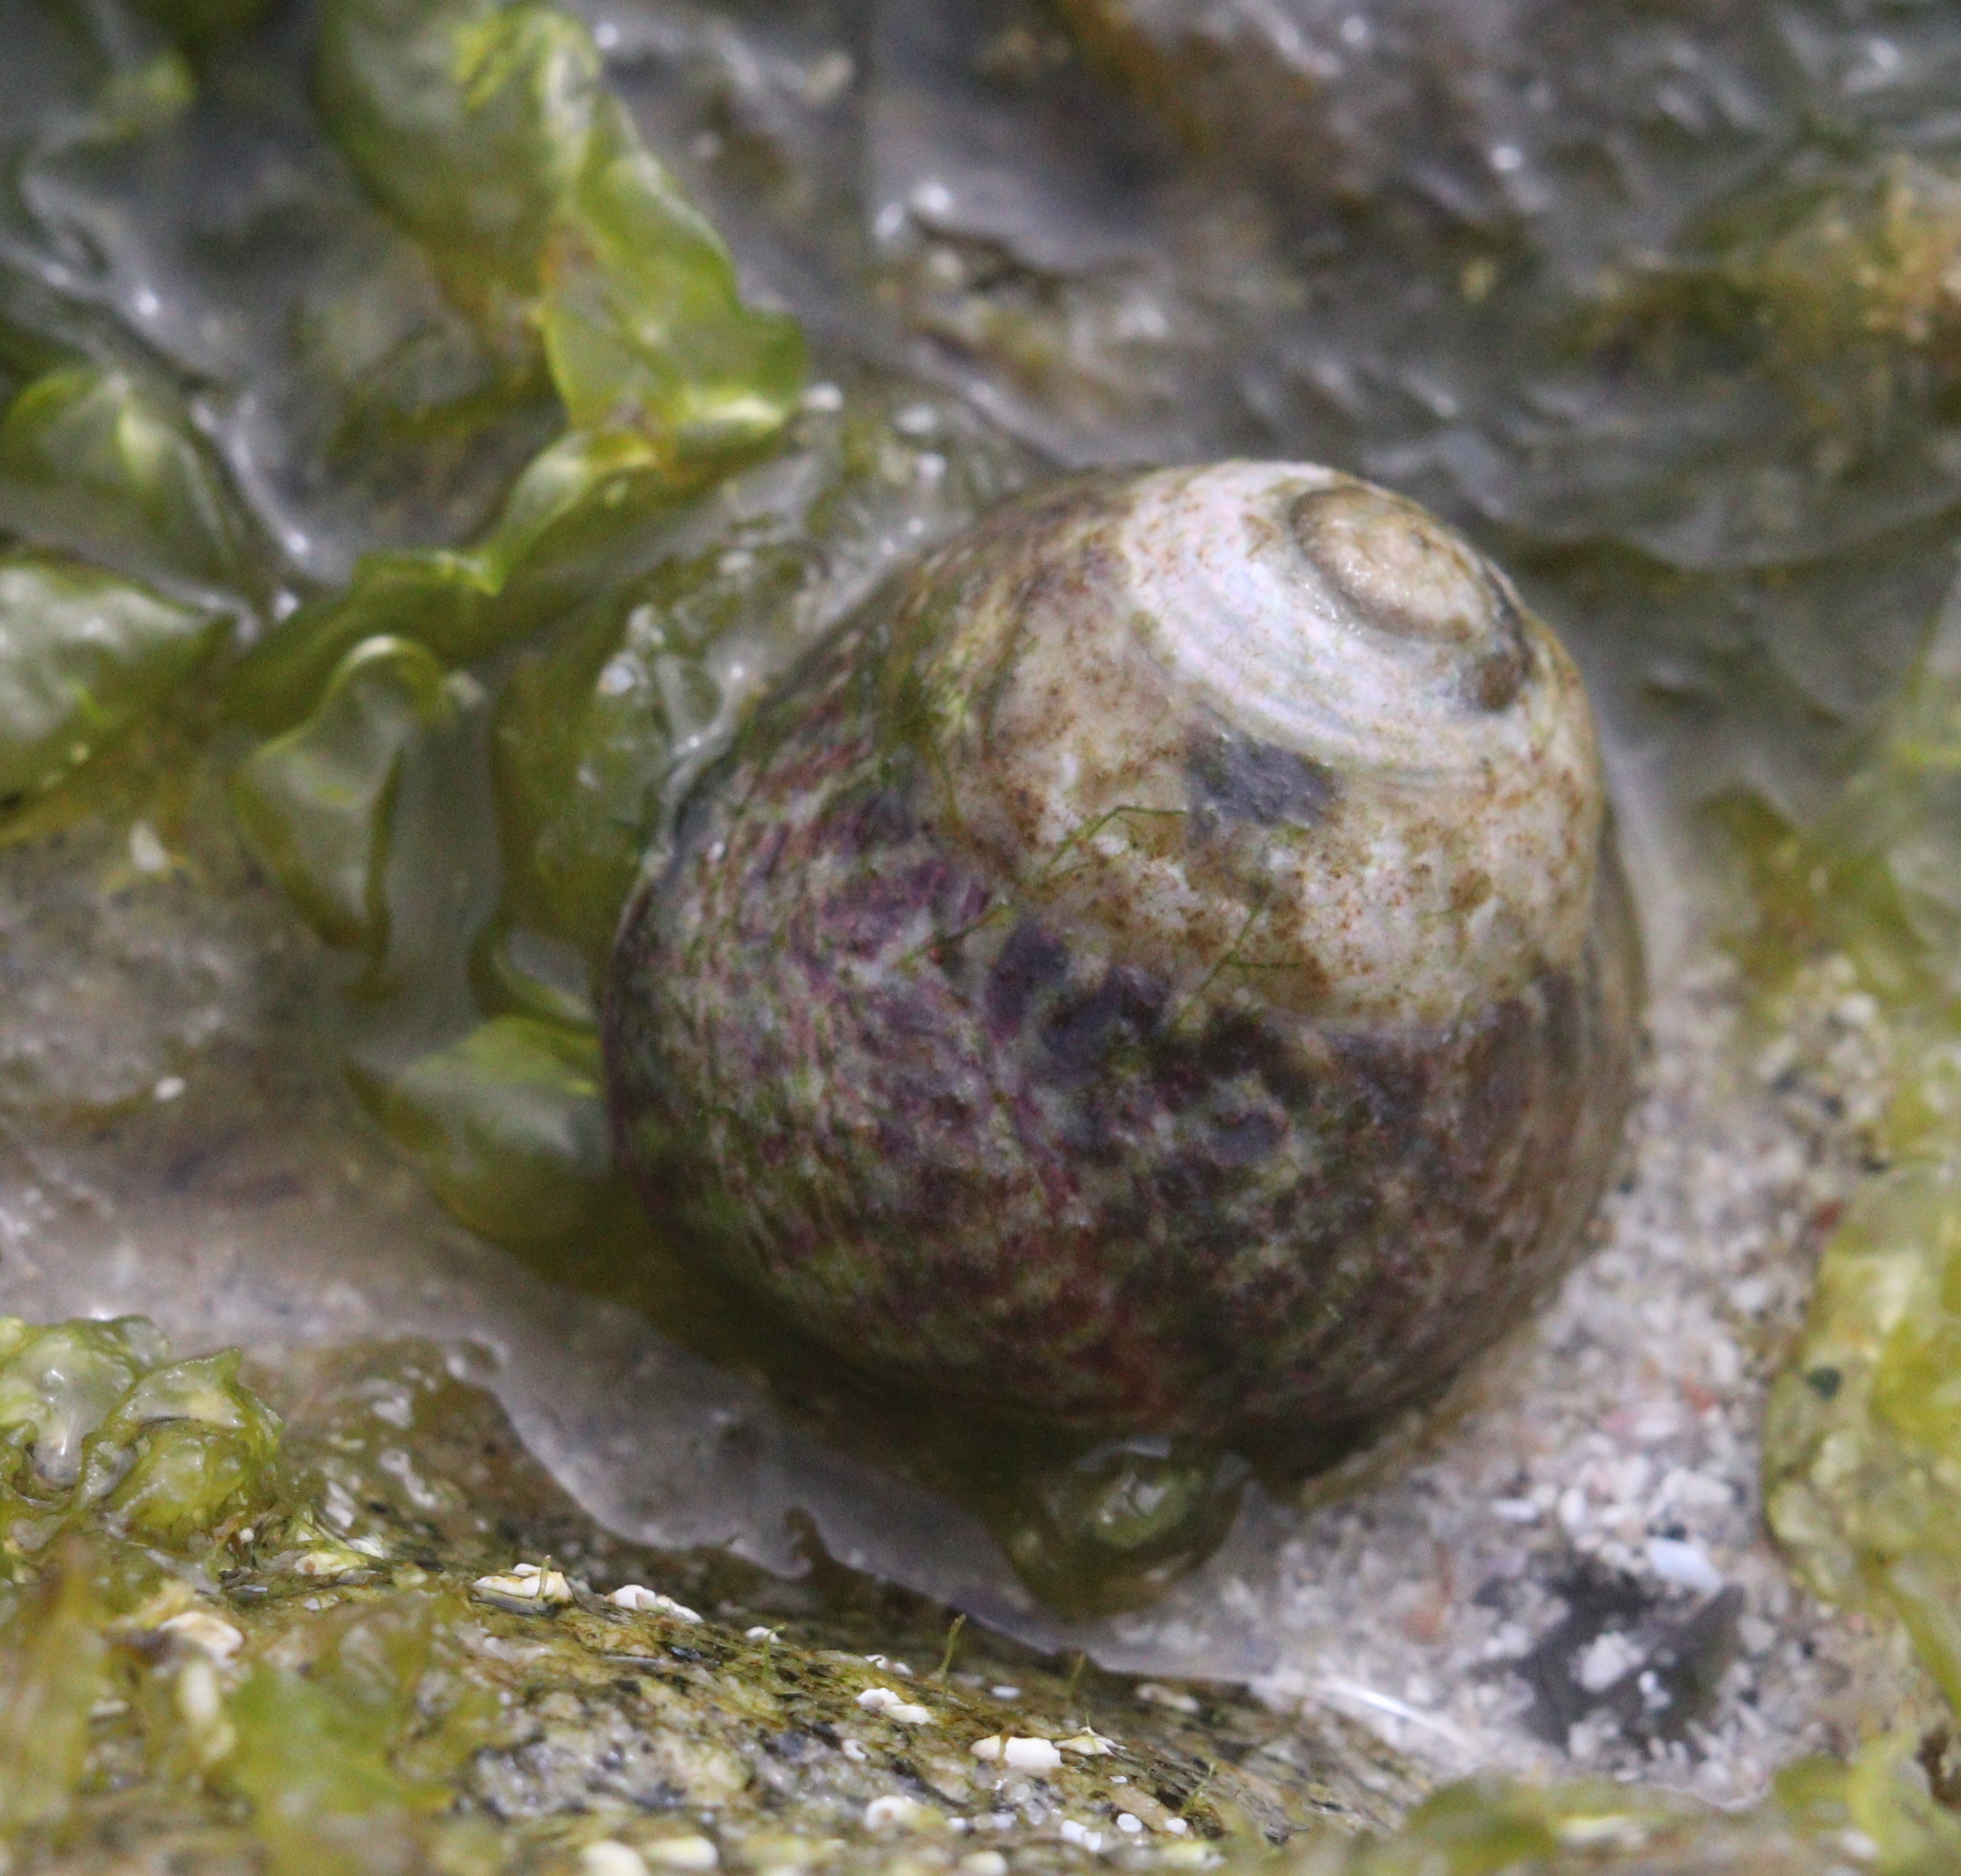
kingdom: Animalia
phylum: Mollusca
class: Gastropoda
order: Trochida
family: Trochidae
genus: Phorcus
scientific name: Phorcus lineatus
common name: Toothed top shell
